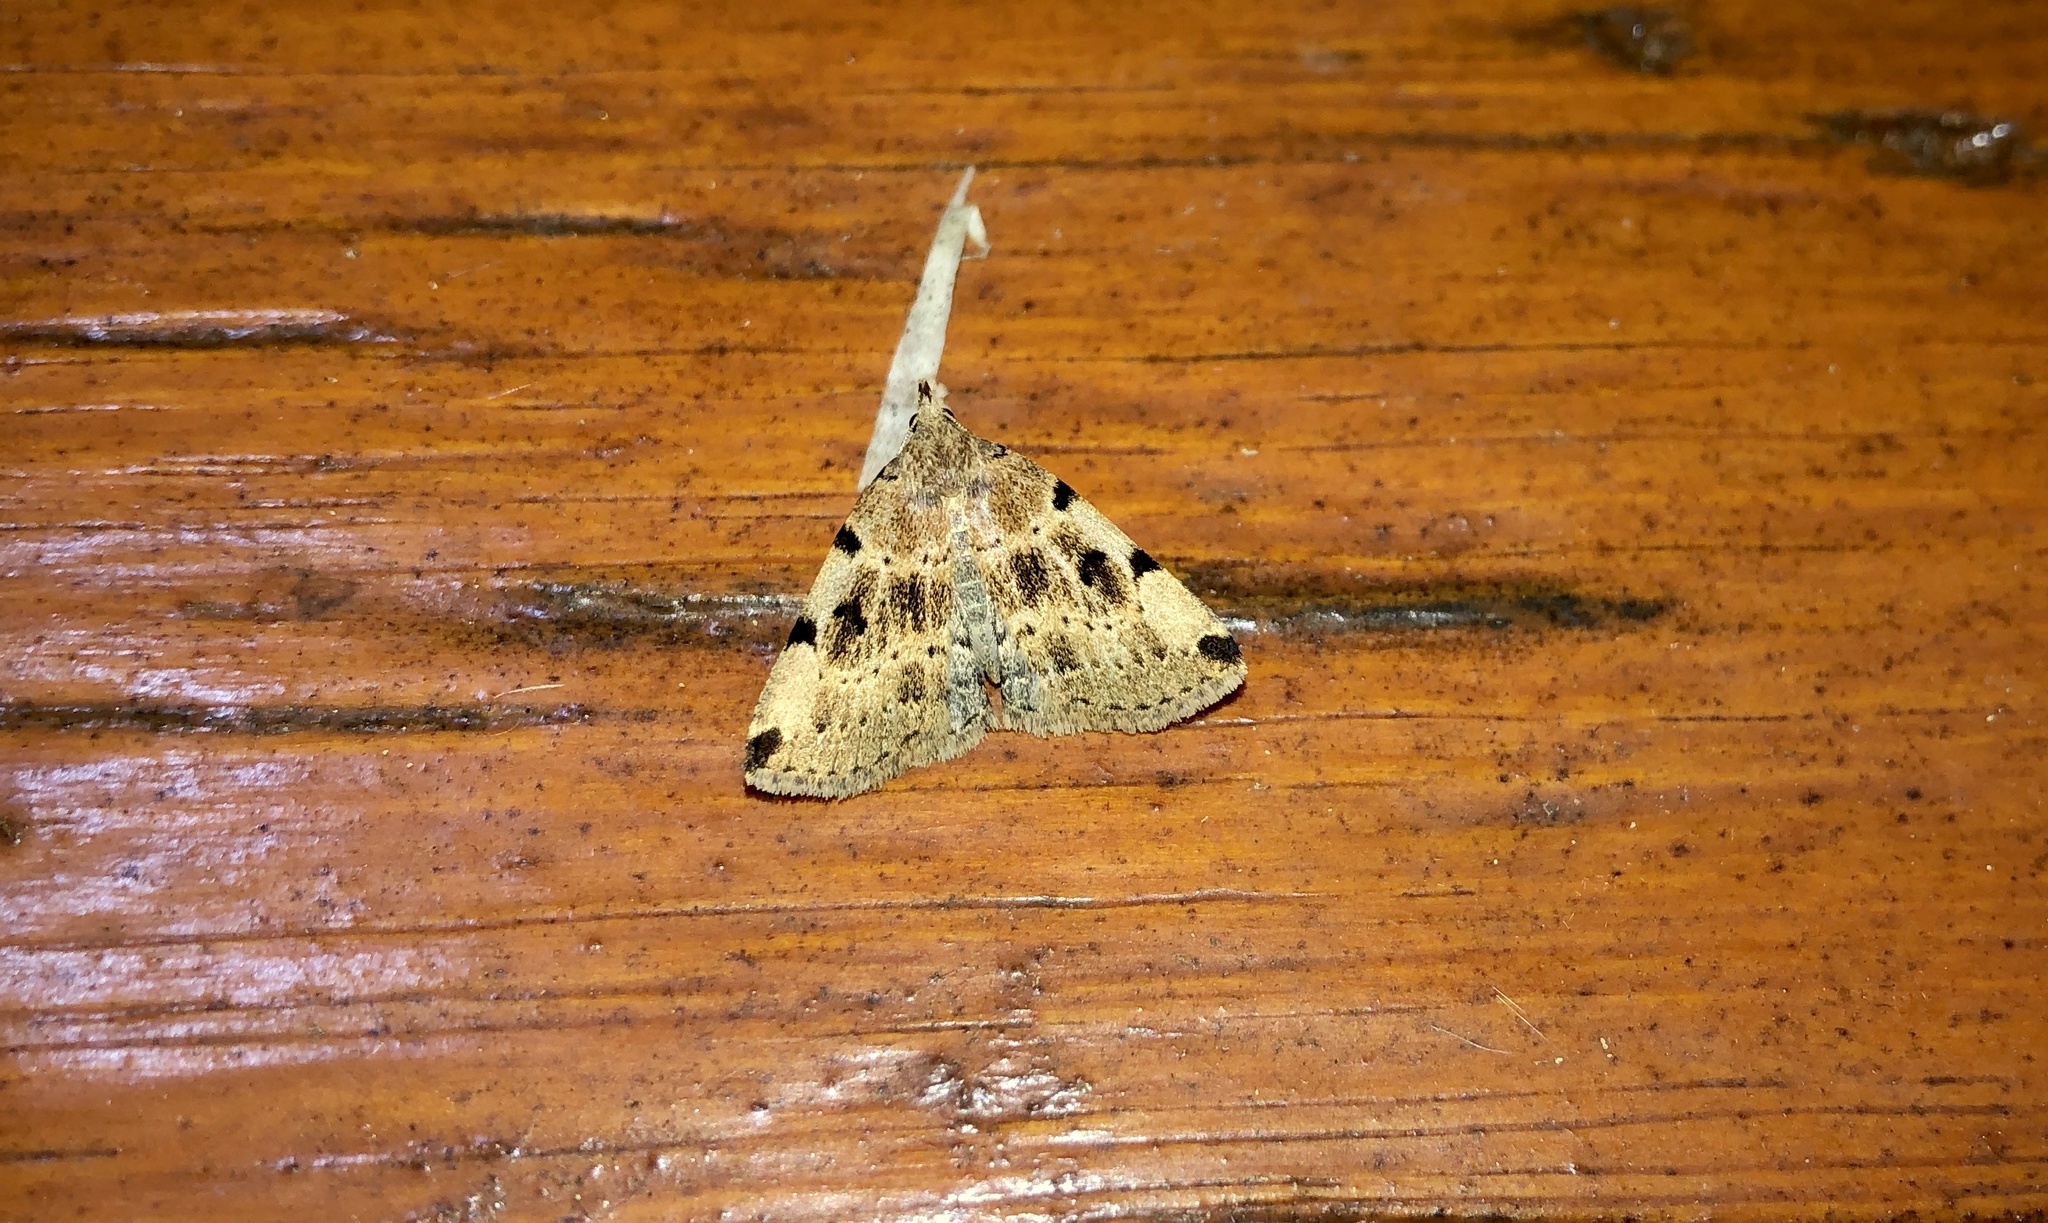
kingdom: Animalia
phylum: Arthropoda
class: Insecta
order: Lepidoptera
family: Erebidae
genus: Zanclognatha
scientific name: Zanclognatha lituralis
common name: Lettered fan-foot
